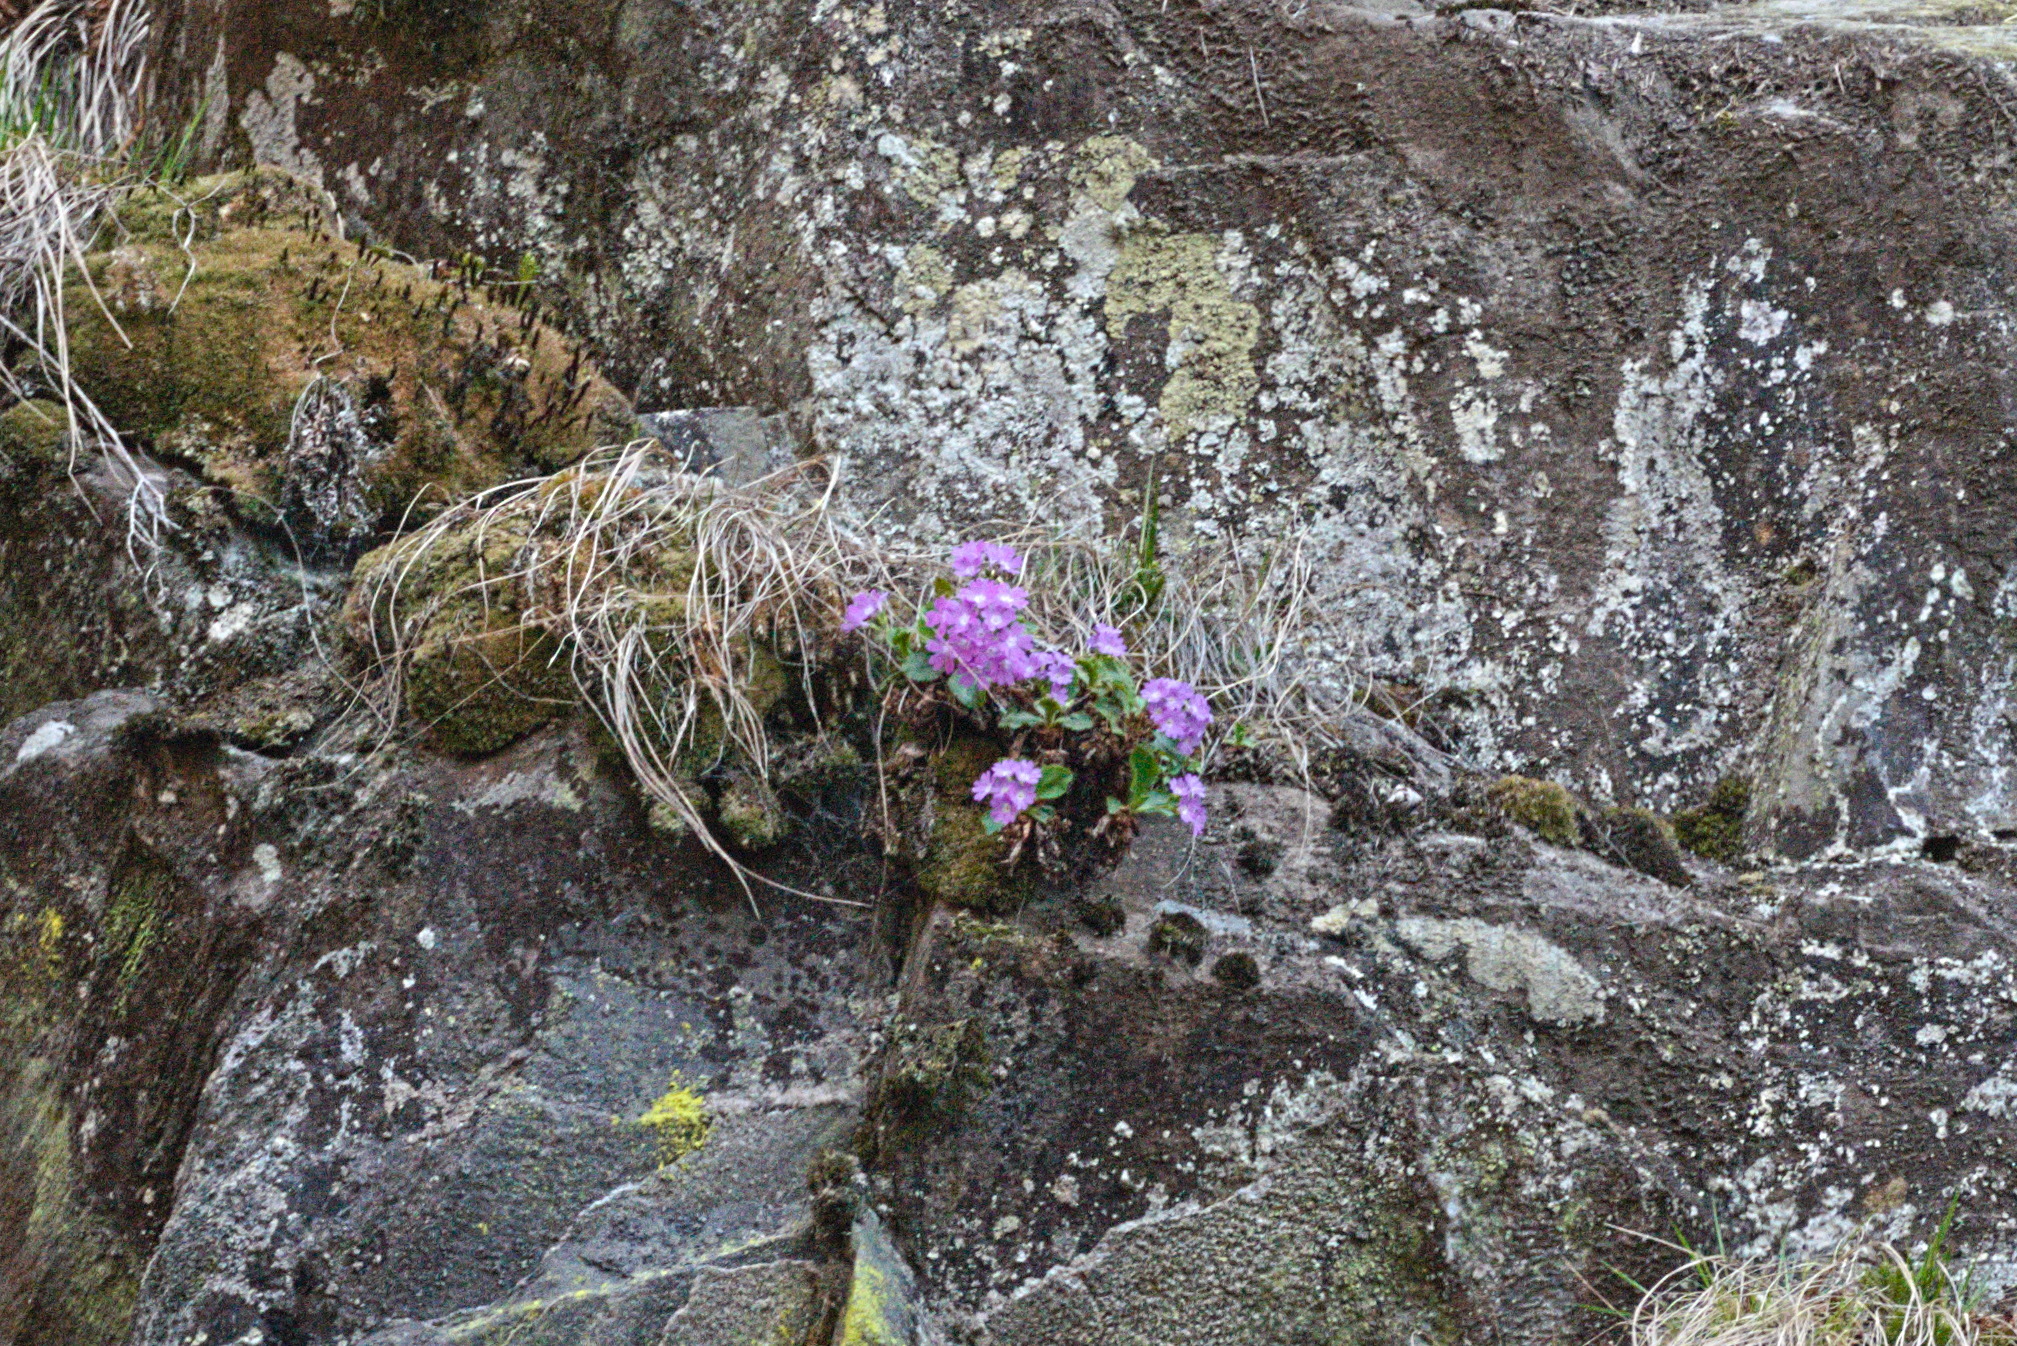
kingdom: Plantae
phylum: Tracheophyta
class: Magnoliopsida
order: Ericales
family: Primulaceae
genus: Primula
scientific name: Primula hirsuta
